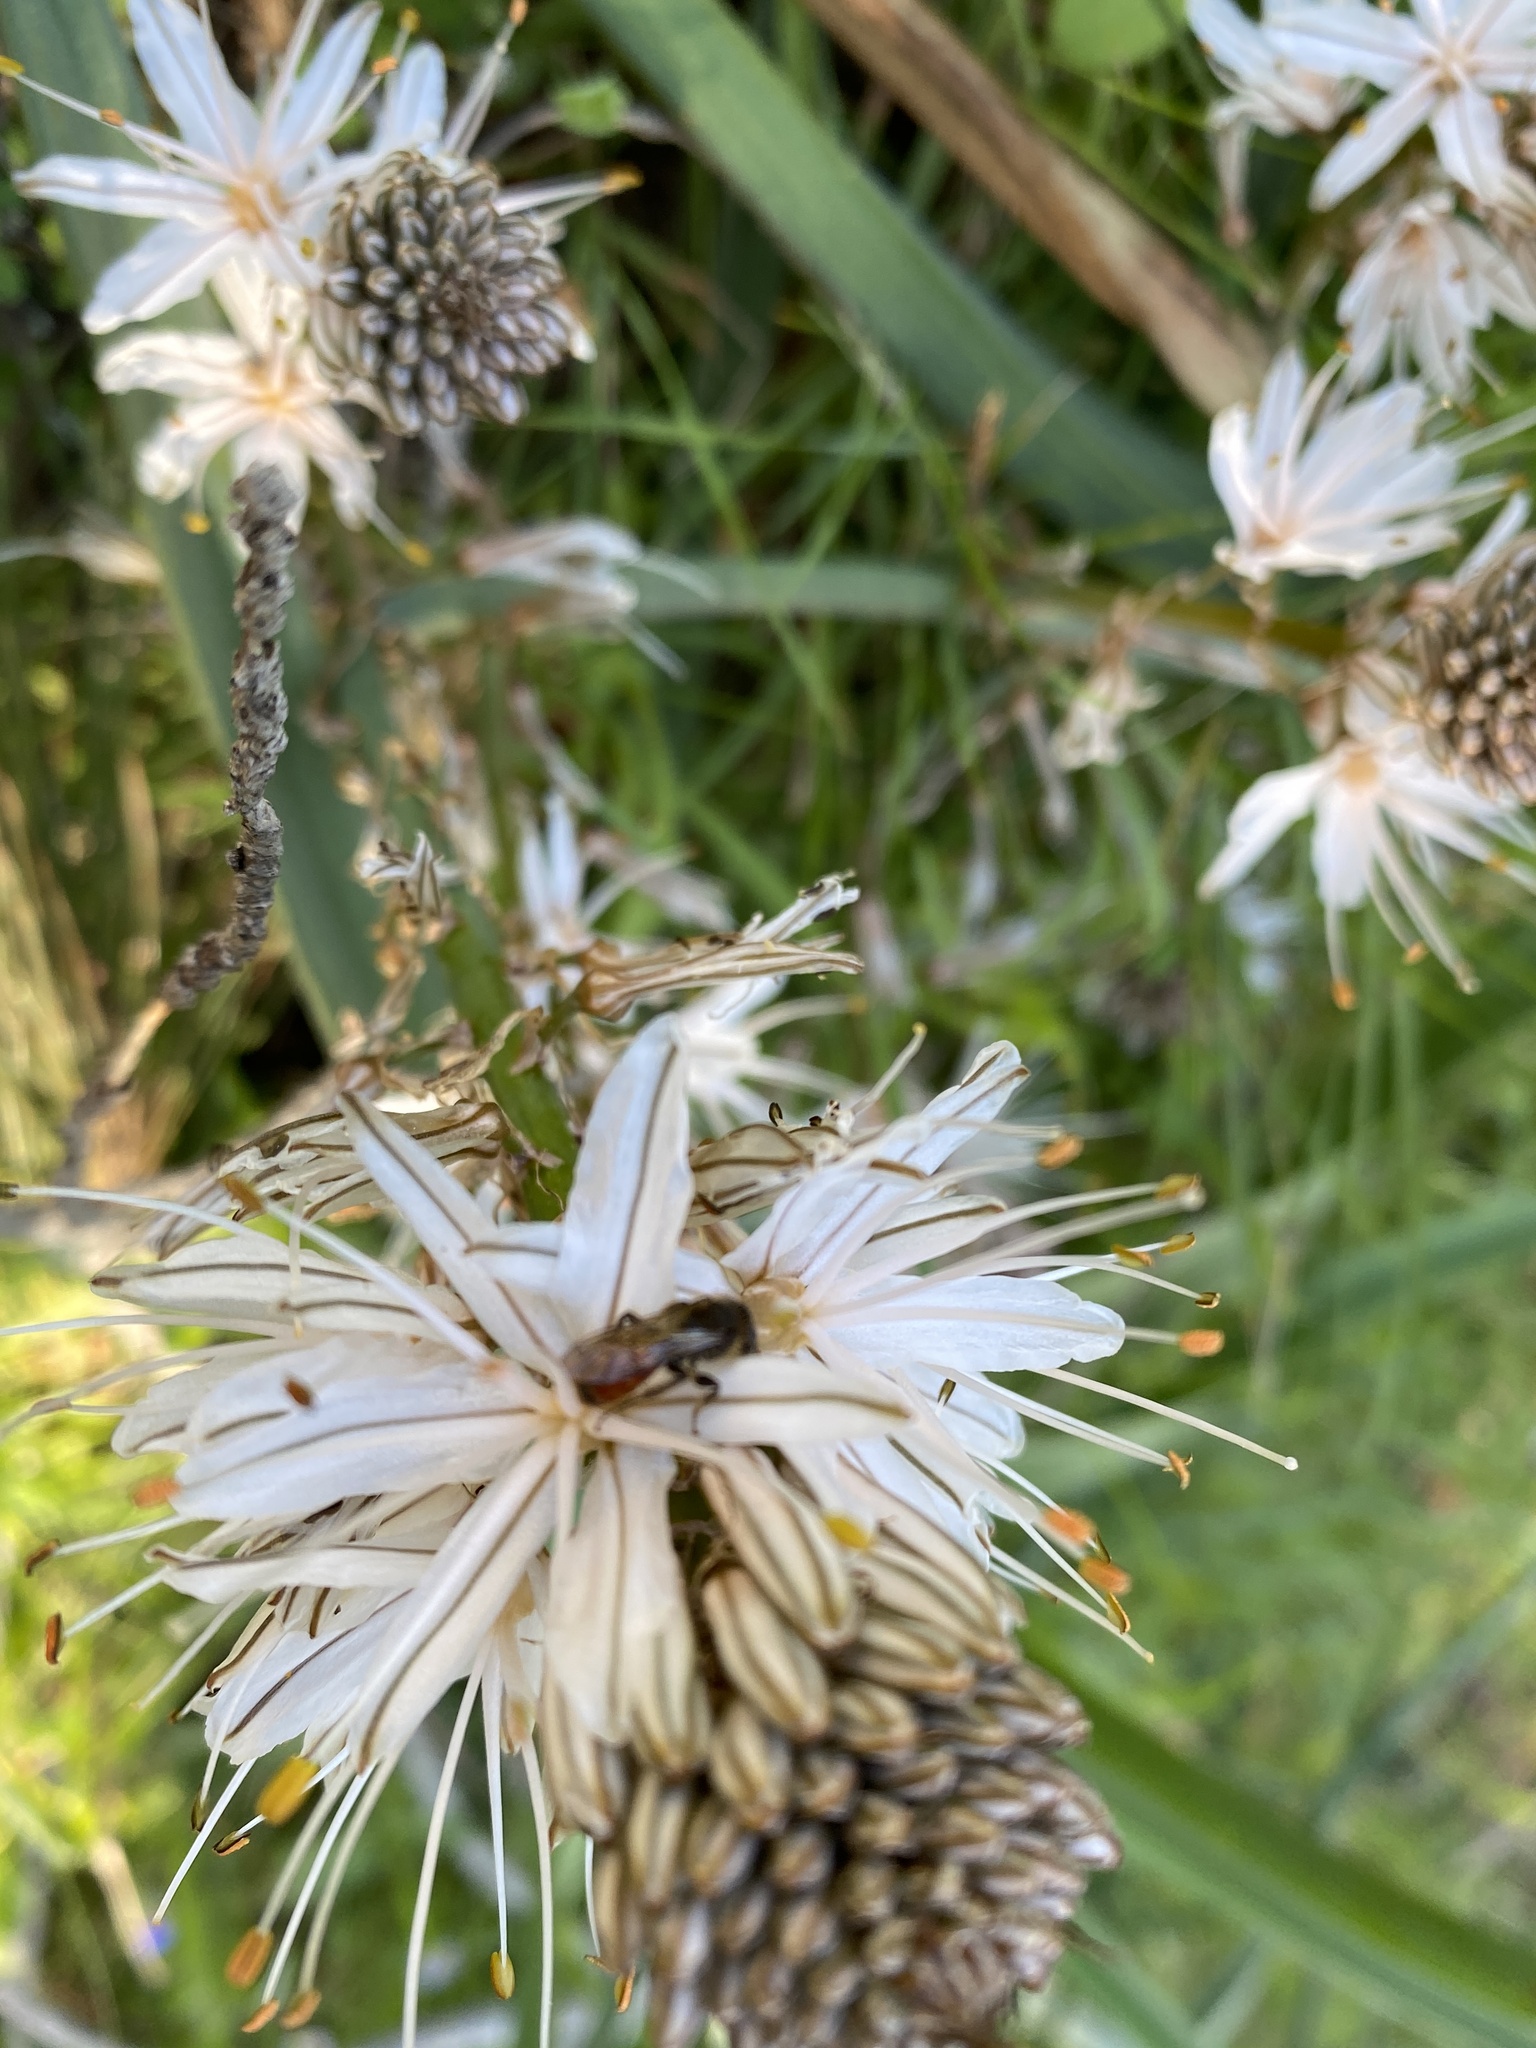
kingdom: Plantae
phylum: Tracheophyta
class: Liliopsida
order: Asparagales
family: Asphodelaceae
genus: Asphodelus
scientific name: Asphodelus ramosus
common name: Silverrod
